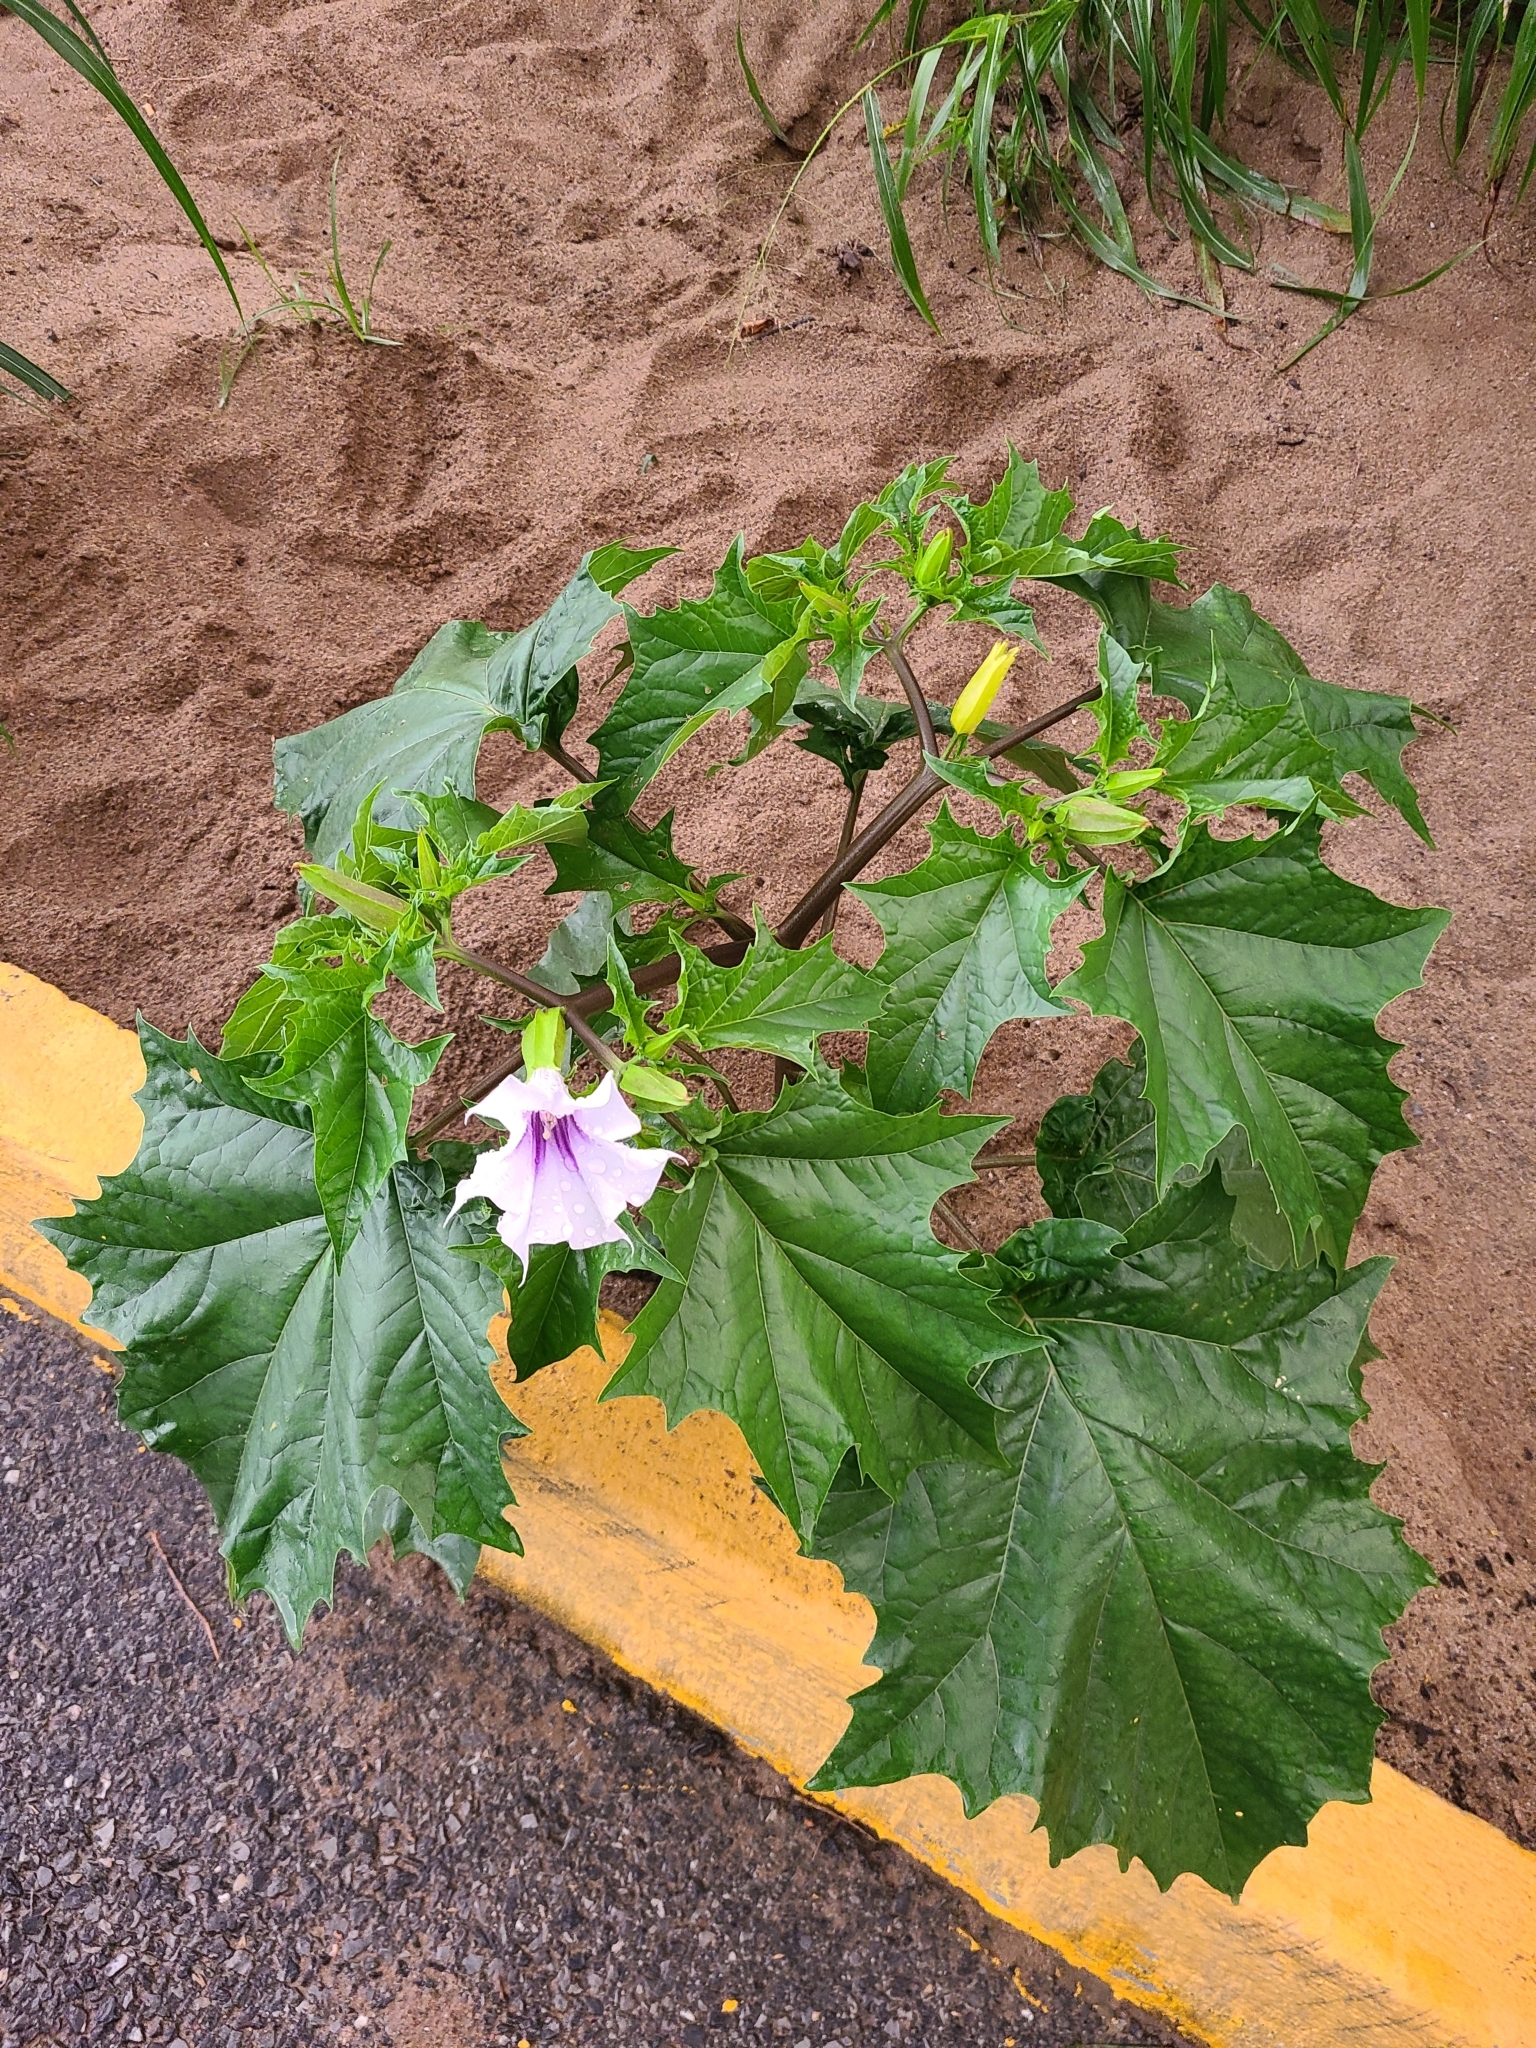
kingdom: Plantae
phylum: Tracheophyta
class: Magnoliopsida
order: Solanales
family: Solanaceae
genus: Datura
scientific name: Datura stramonium
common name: Thorn-apple
